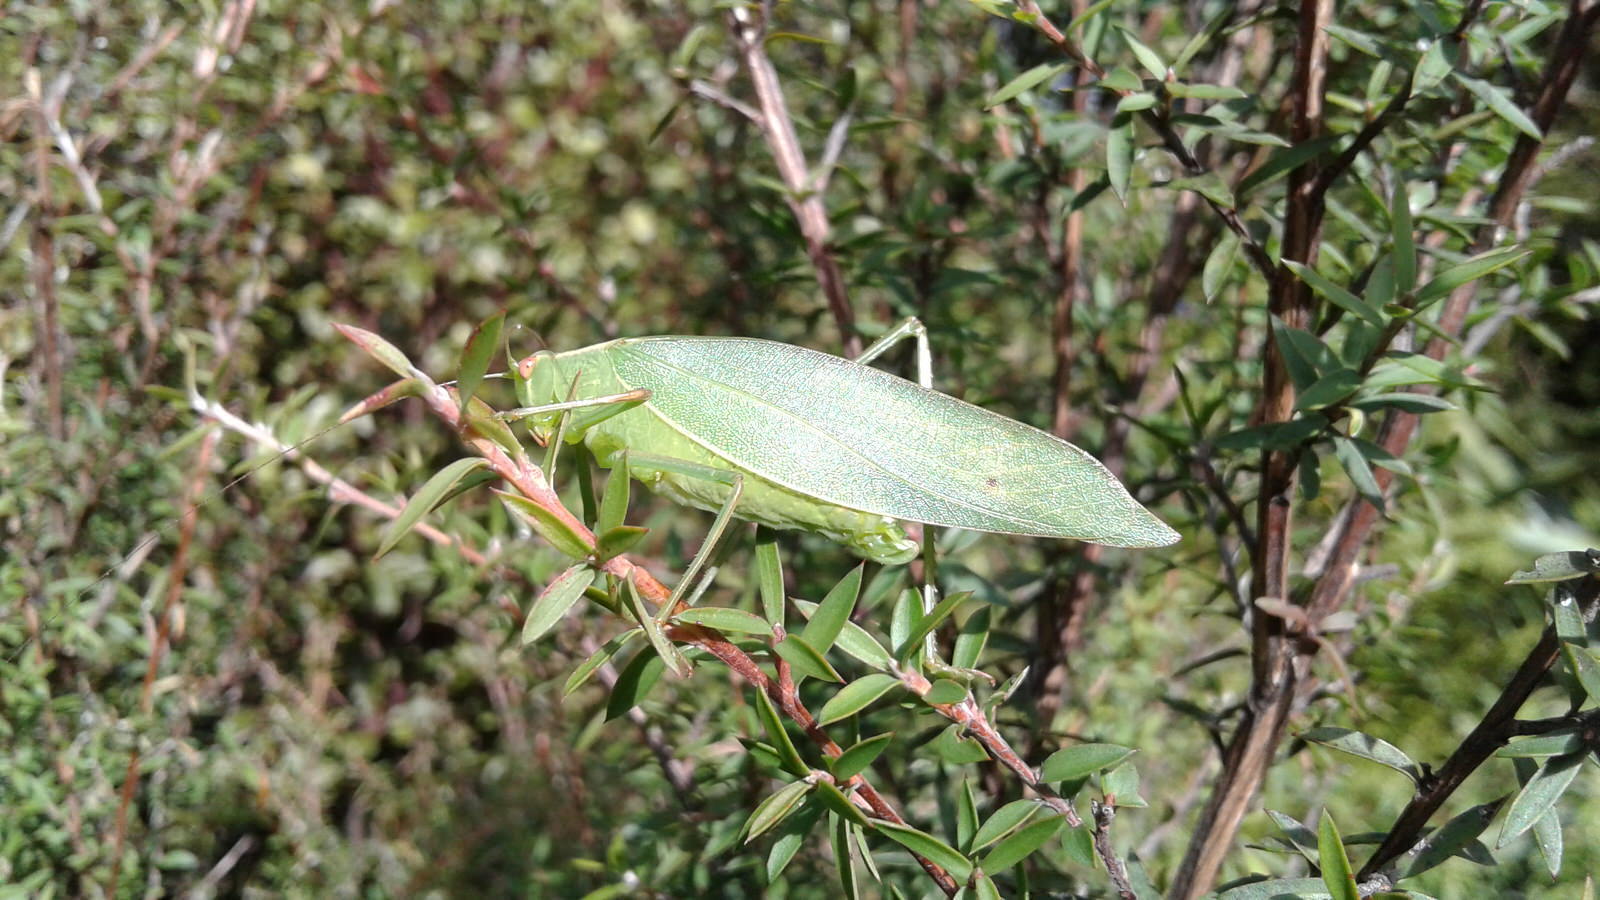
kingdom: Animalia
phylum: Arthropoda
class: Insecta
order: Orthoptera
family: Tettigoniidae
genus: Caedicia
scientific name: Caedicia simplex
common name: Common garden katydid
